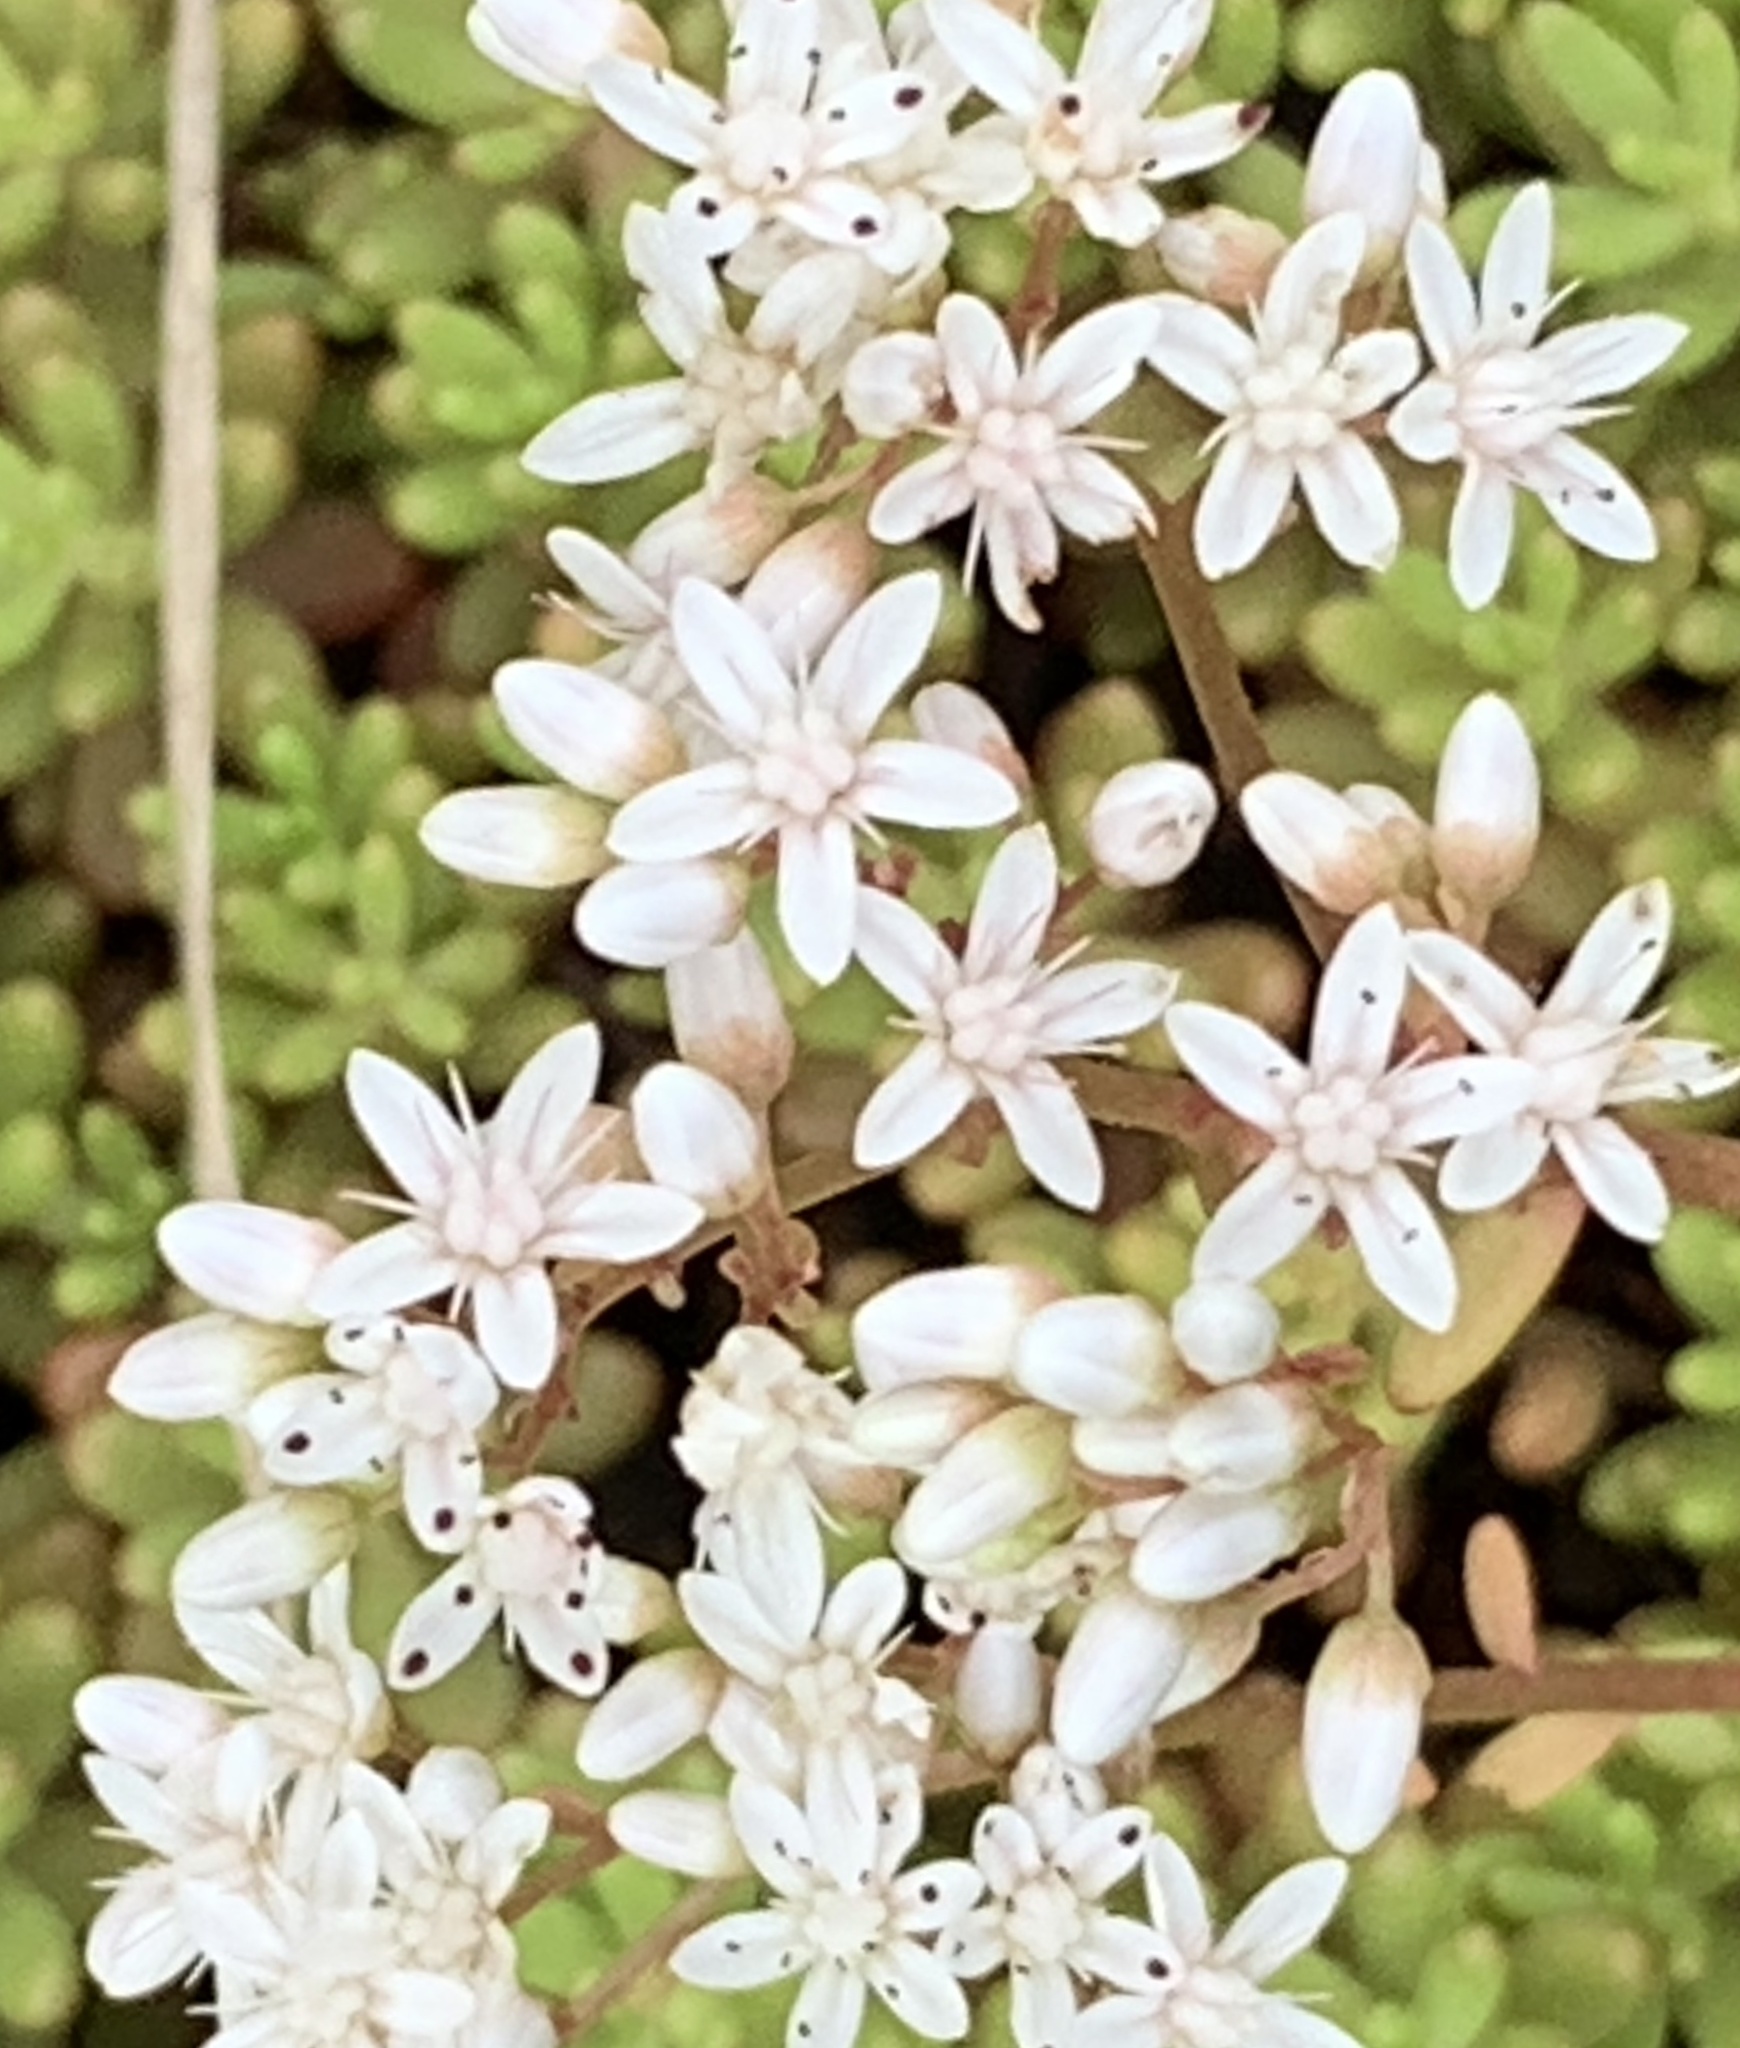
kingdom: Plantae
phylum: Tracheophyta
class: Magnoliopsida
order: Saxifragales
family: Crassulaceae
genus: Sedum
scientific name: Sedum album
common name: White stonecrop
